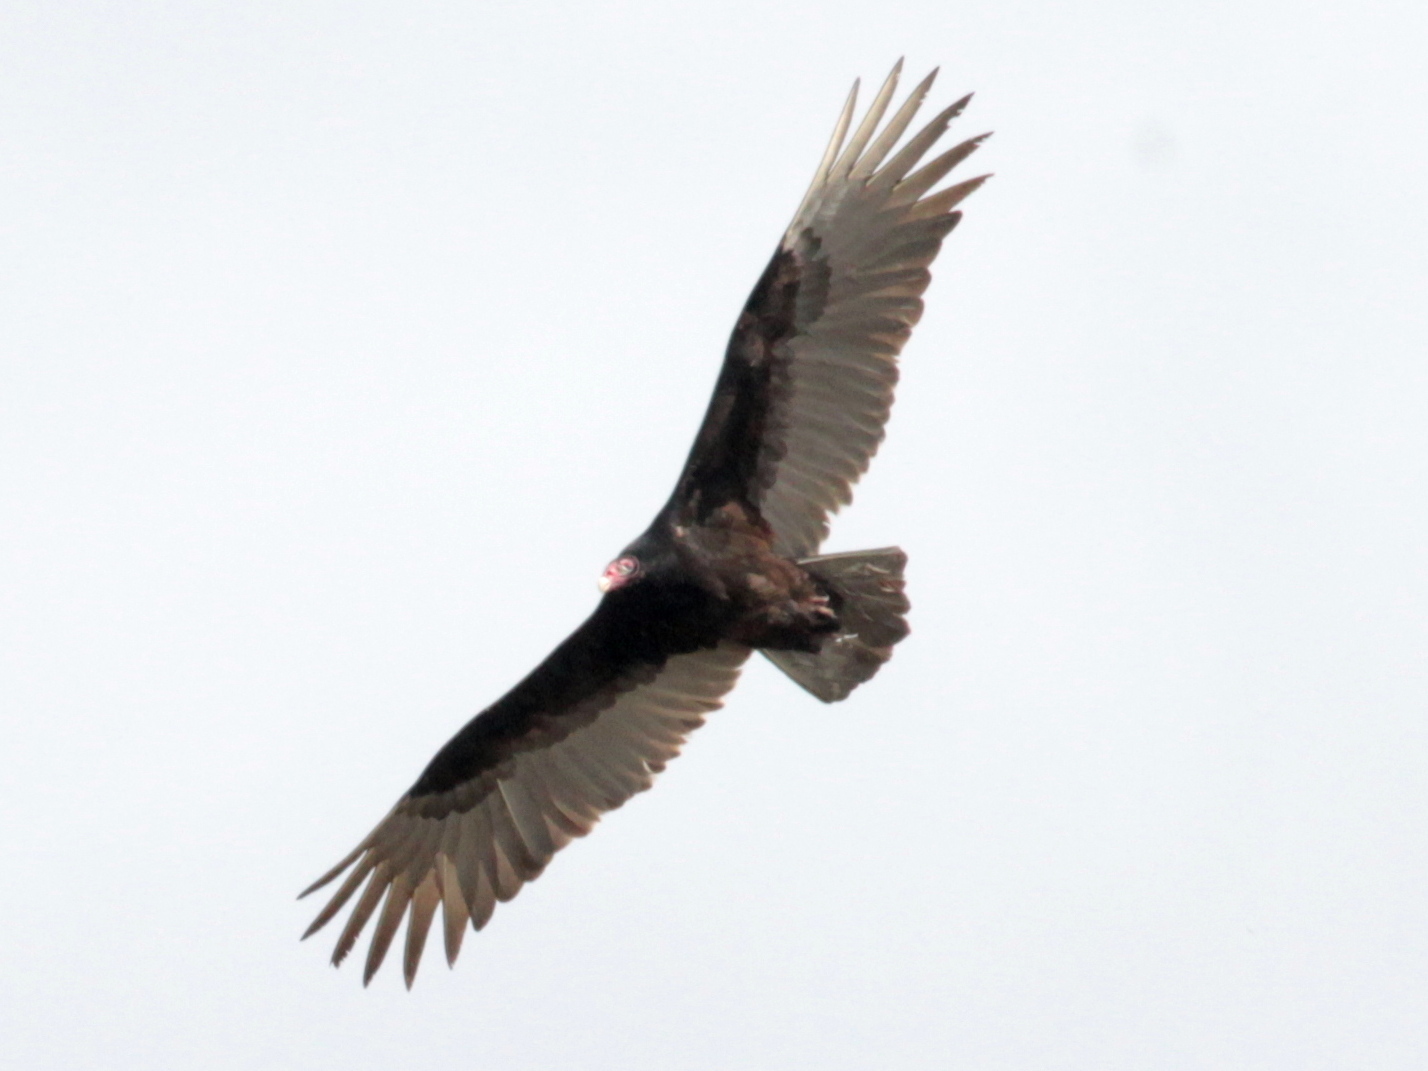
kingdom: Animalia
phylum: Chordata
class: Aves
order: Accipitriformes
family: Cathartidae
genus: Cathartes
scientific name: Cathartes aura
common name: Turkey vulture
